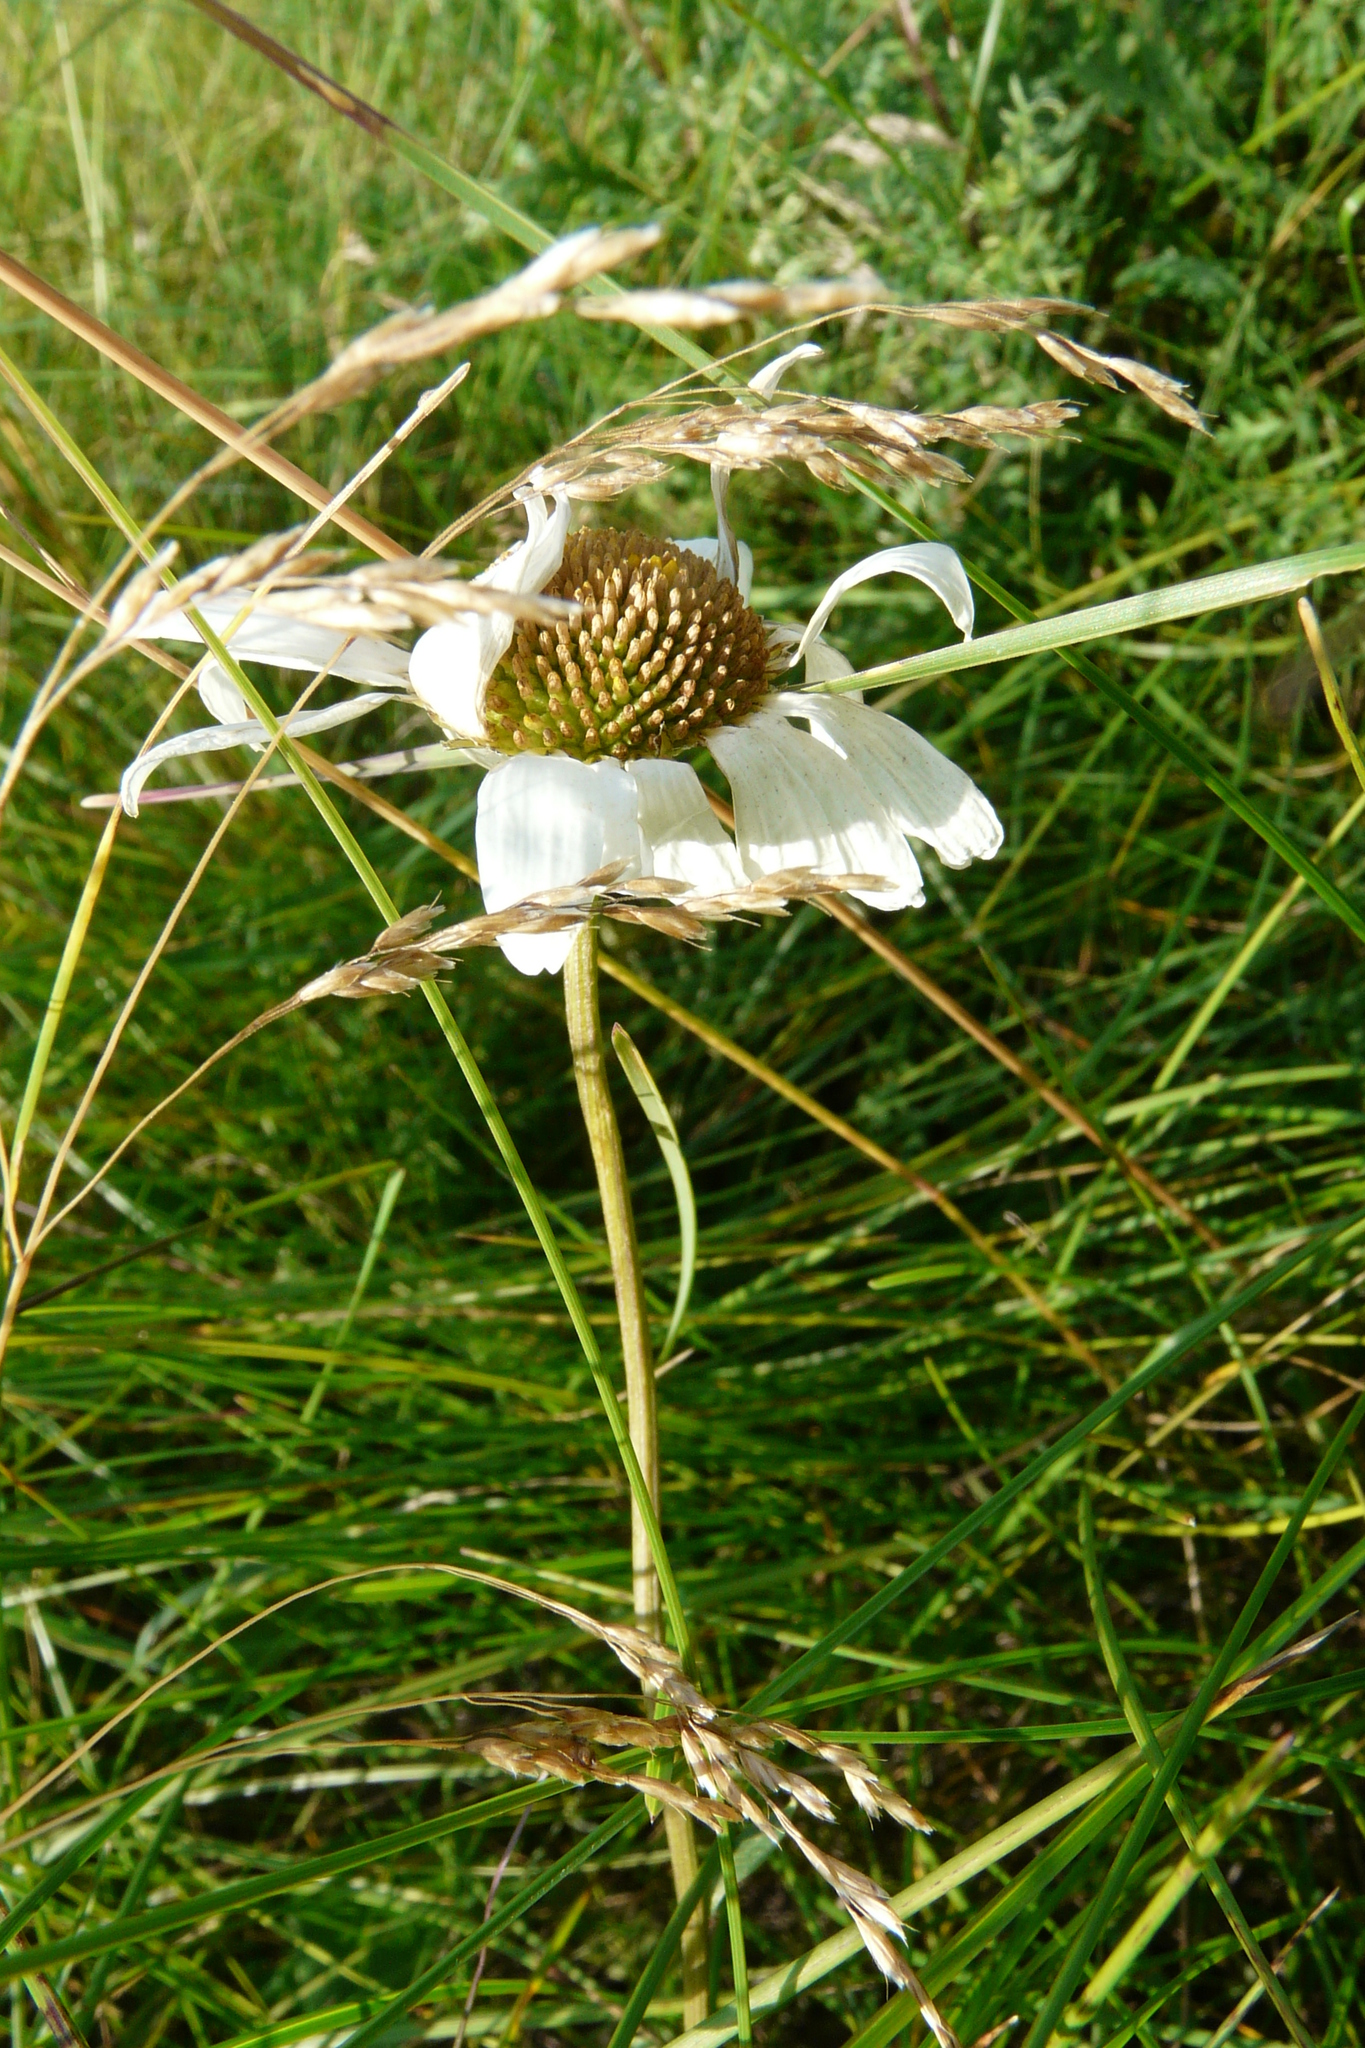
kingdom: Plantae
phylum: Tracheophyta
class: Magnoliopsida
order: Asterales
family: Asteraceae
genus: Leucanthemum
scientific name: Leucanthemum vulgare
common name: Oxeye daisy
